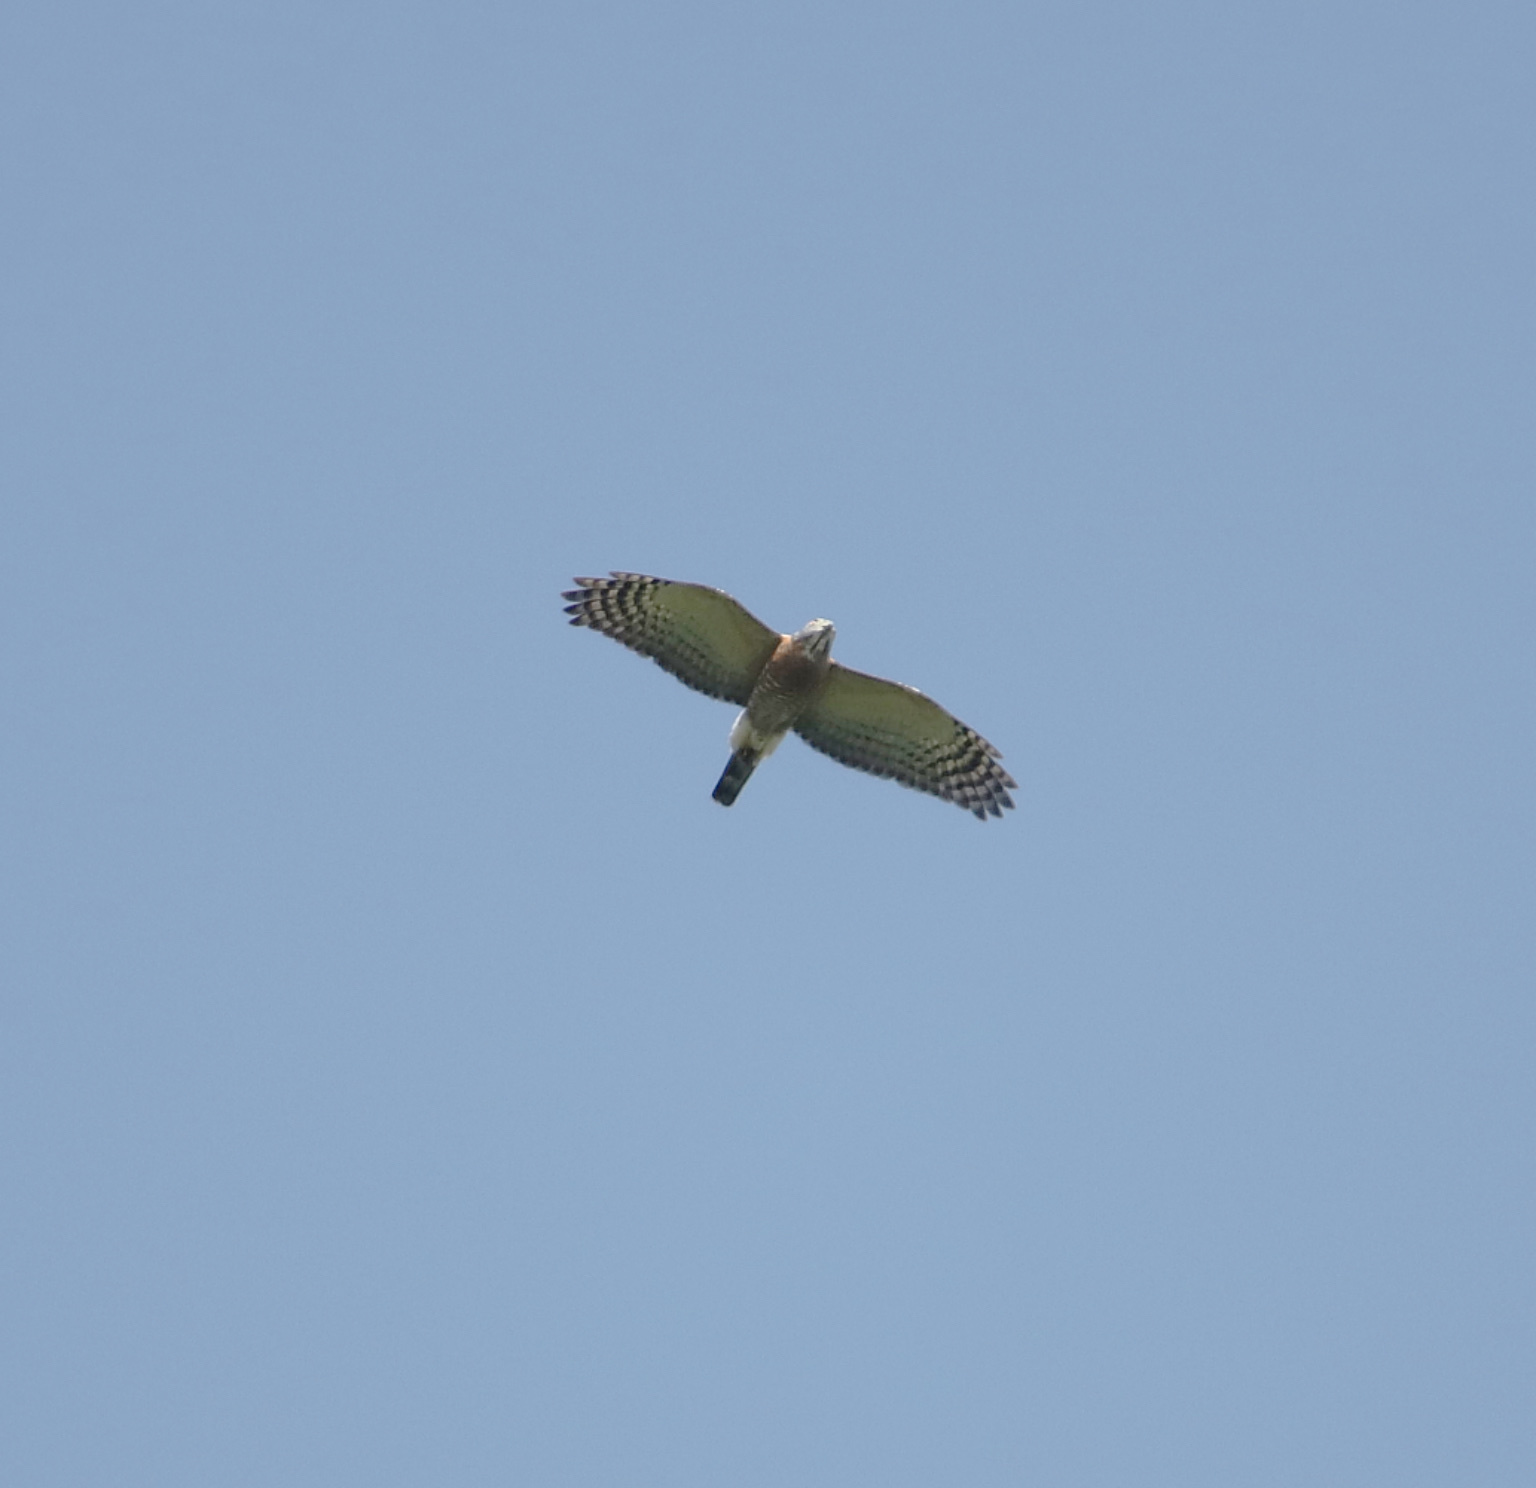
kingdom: Animalia
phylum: Chordata
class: Aves
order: Accipitriformes
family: Accipitridae
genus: Harpagus
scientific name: Harpagus bidentatus
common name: Double-toothed kite
